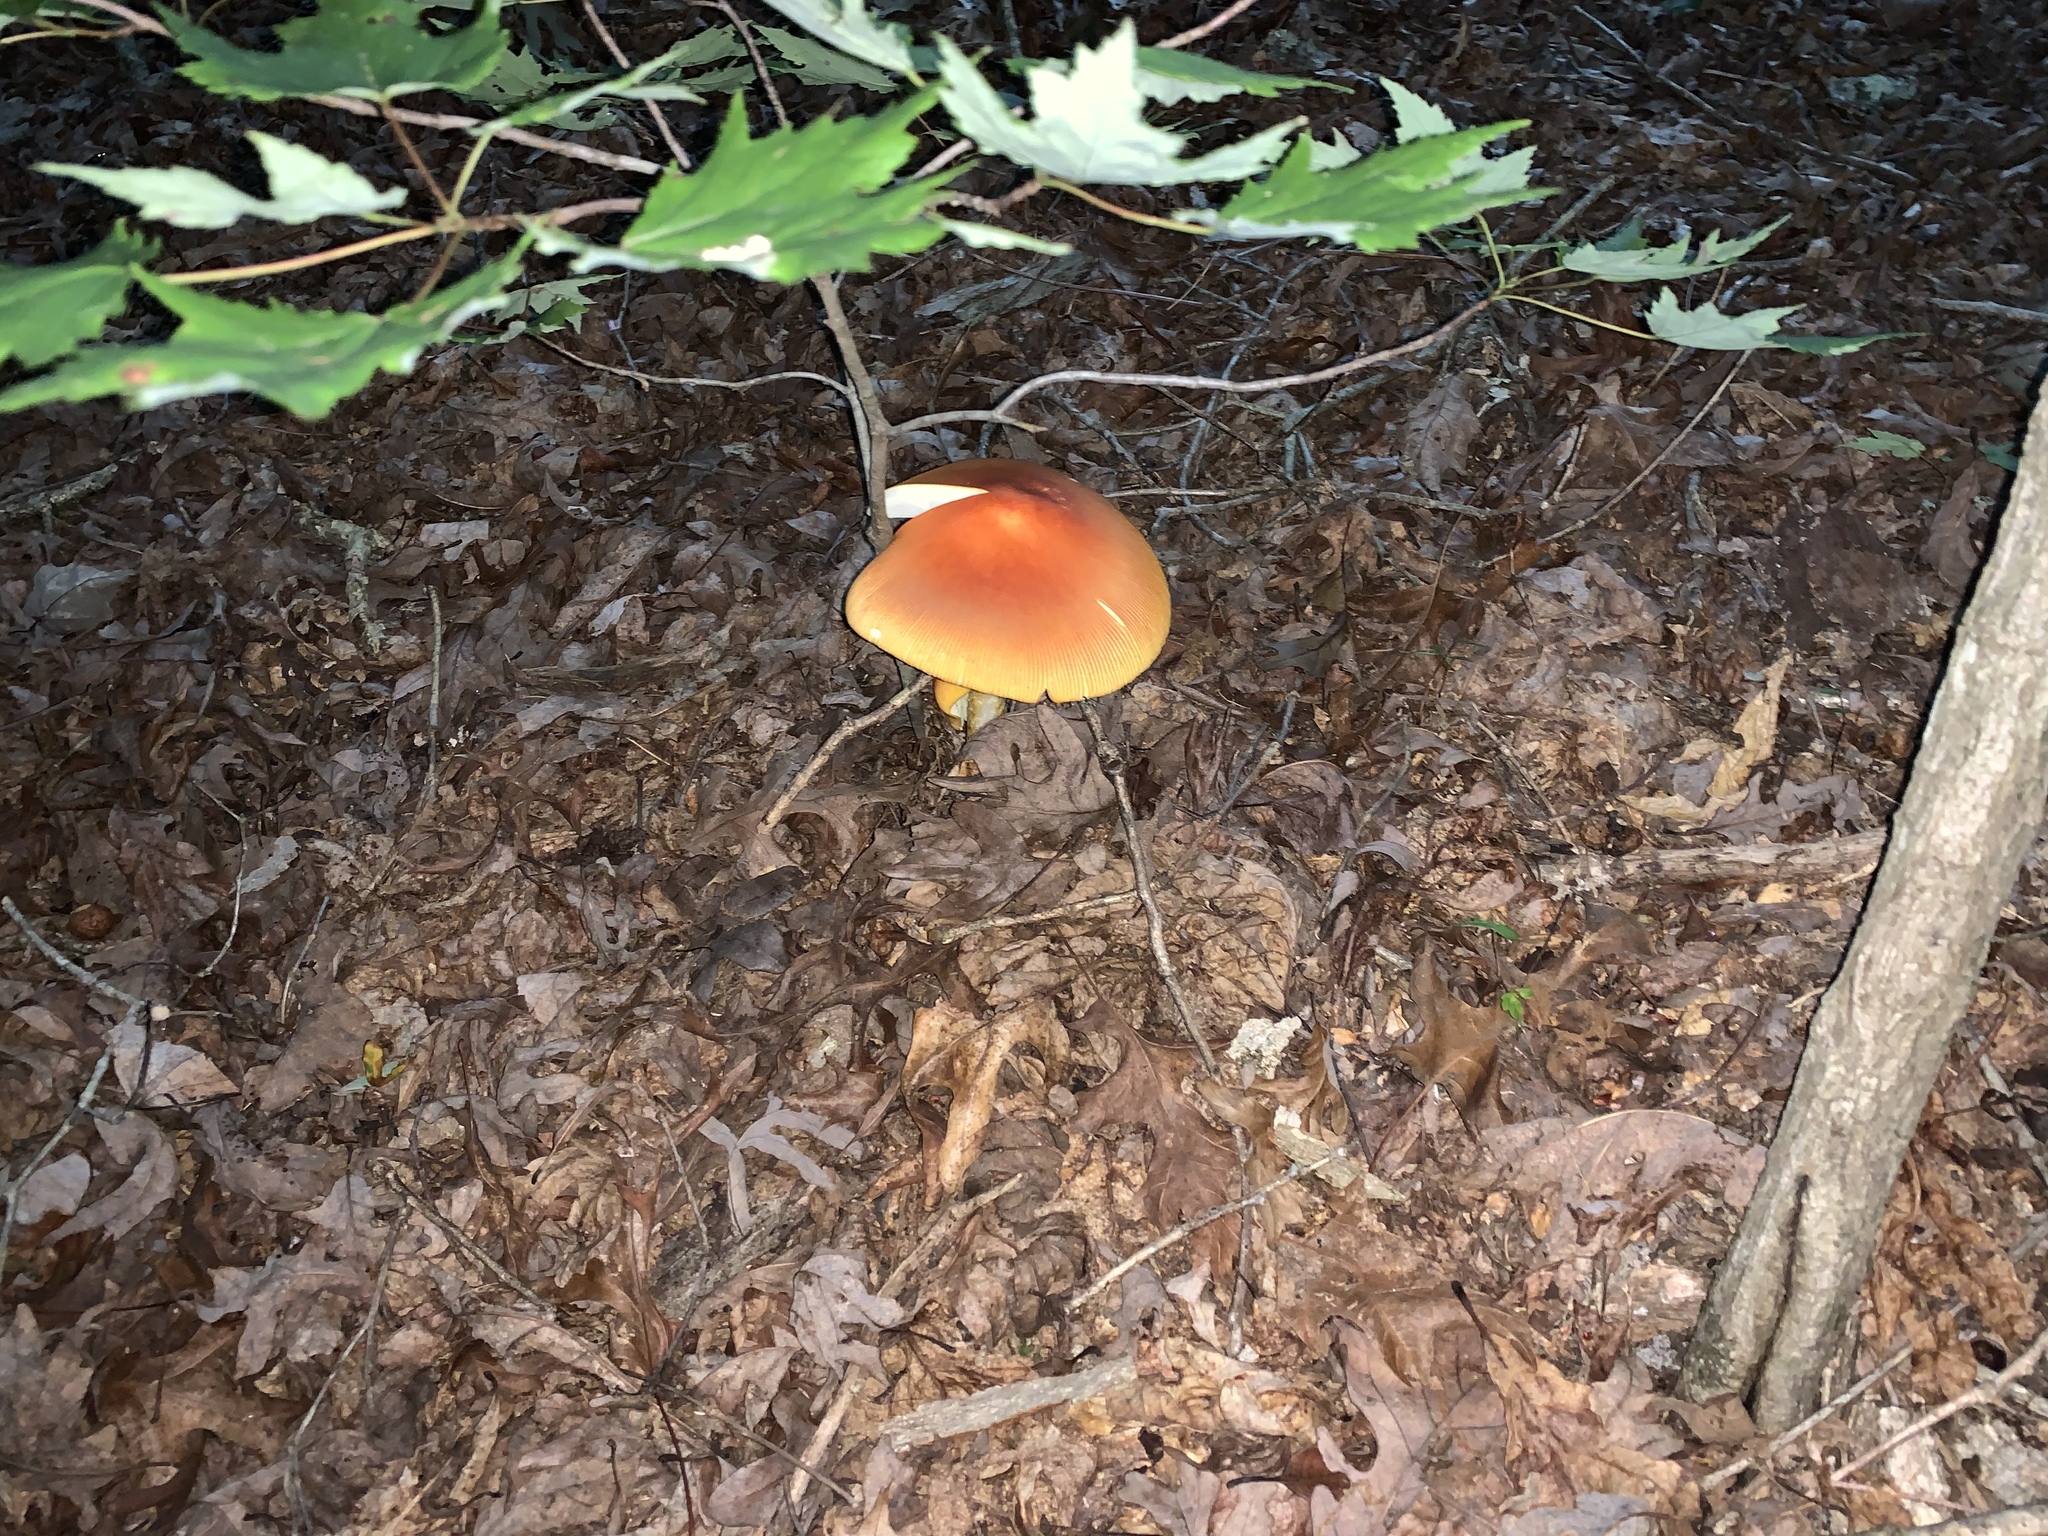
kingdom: Fungi
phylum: Basidiomycota
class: Agaricomycetes
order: Agaricales
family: Amanitaceae
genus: Amanita
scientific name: Amanita jacksonii
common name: Jackson's slender caesar
